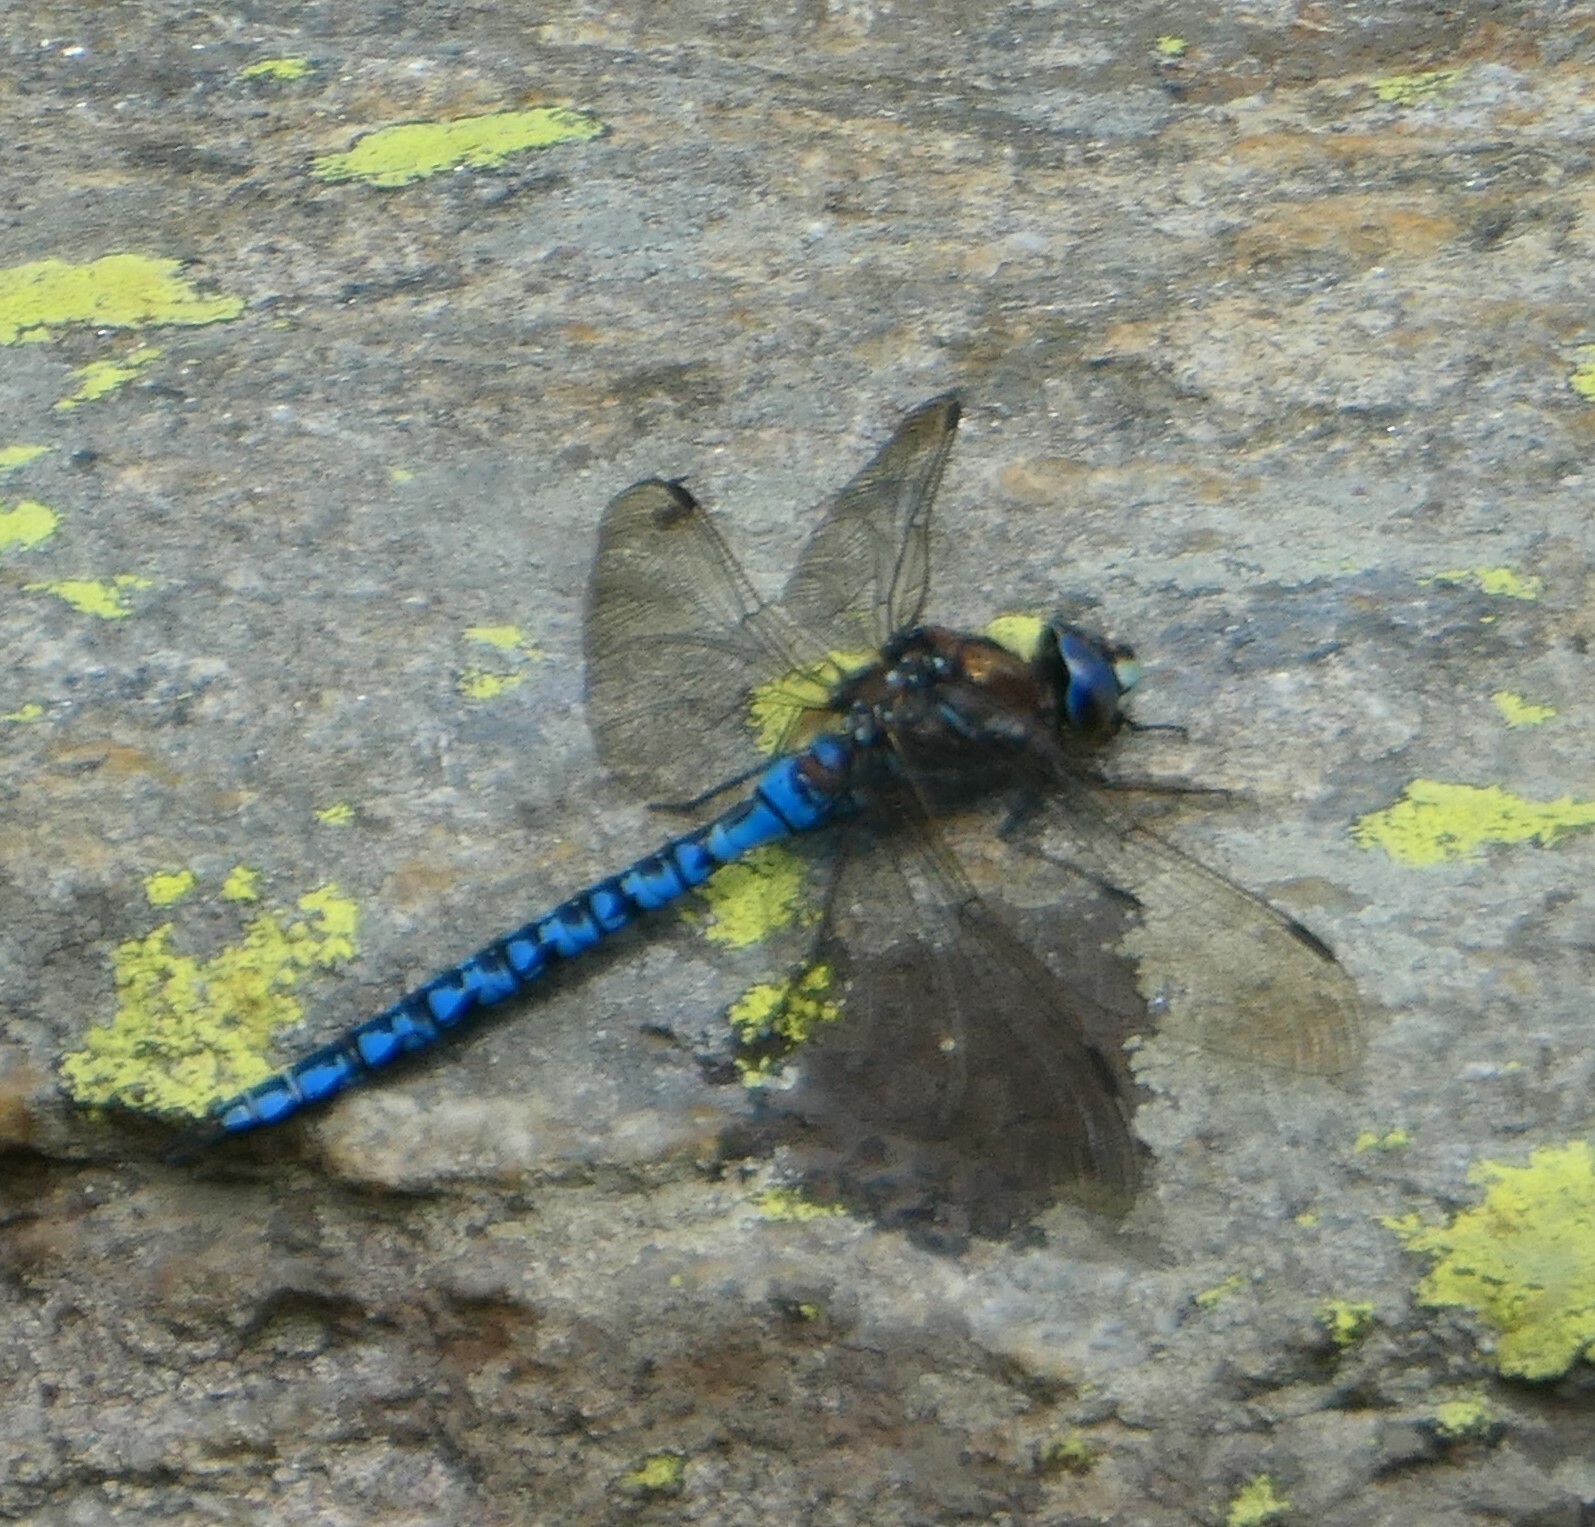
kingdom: Animalia
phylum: Arthropoda
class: Insecta
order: Odonata
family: Aeshnidae
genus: Aeshna
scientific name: Aeshna caerulea
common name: Azure hawker
